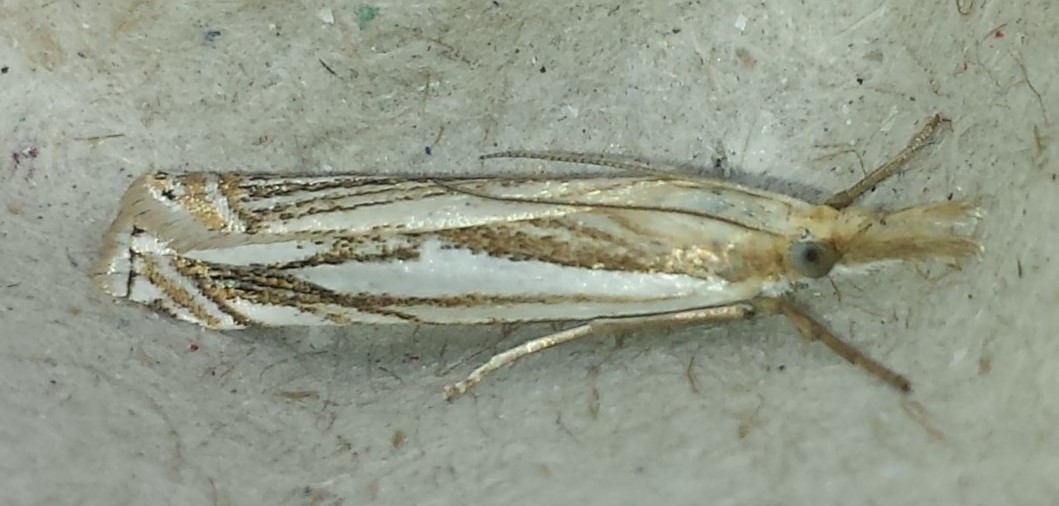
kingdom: Animalia
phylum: Arthropoda
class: Insecta
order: Lepidoptera
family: Crambidae
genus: Crambus
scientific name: Crambus saltuellus
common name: Pasture grass-veneer
